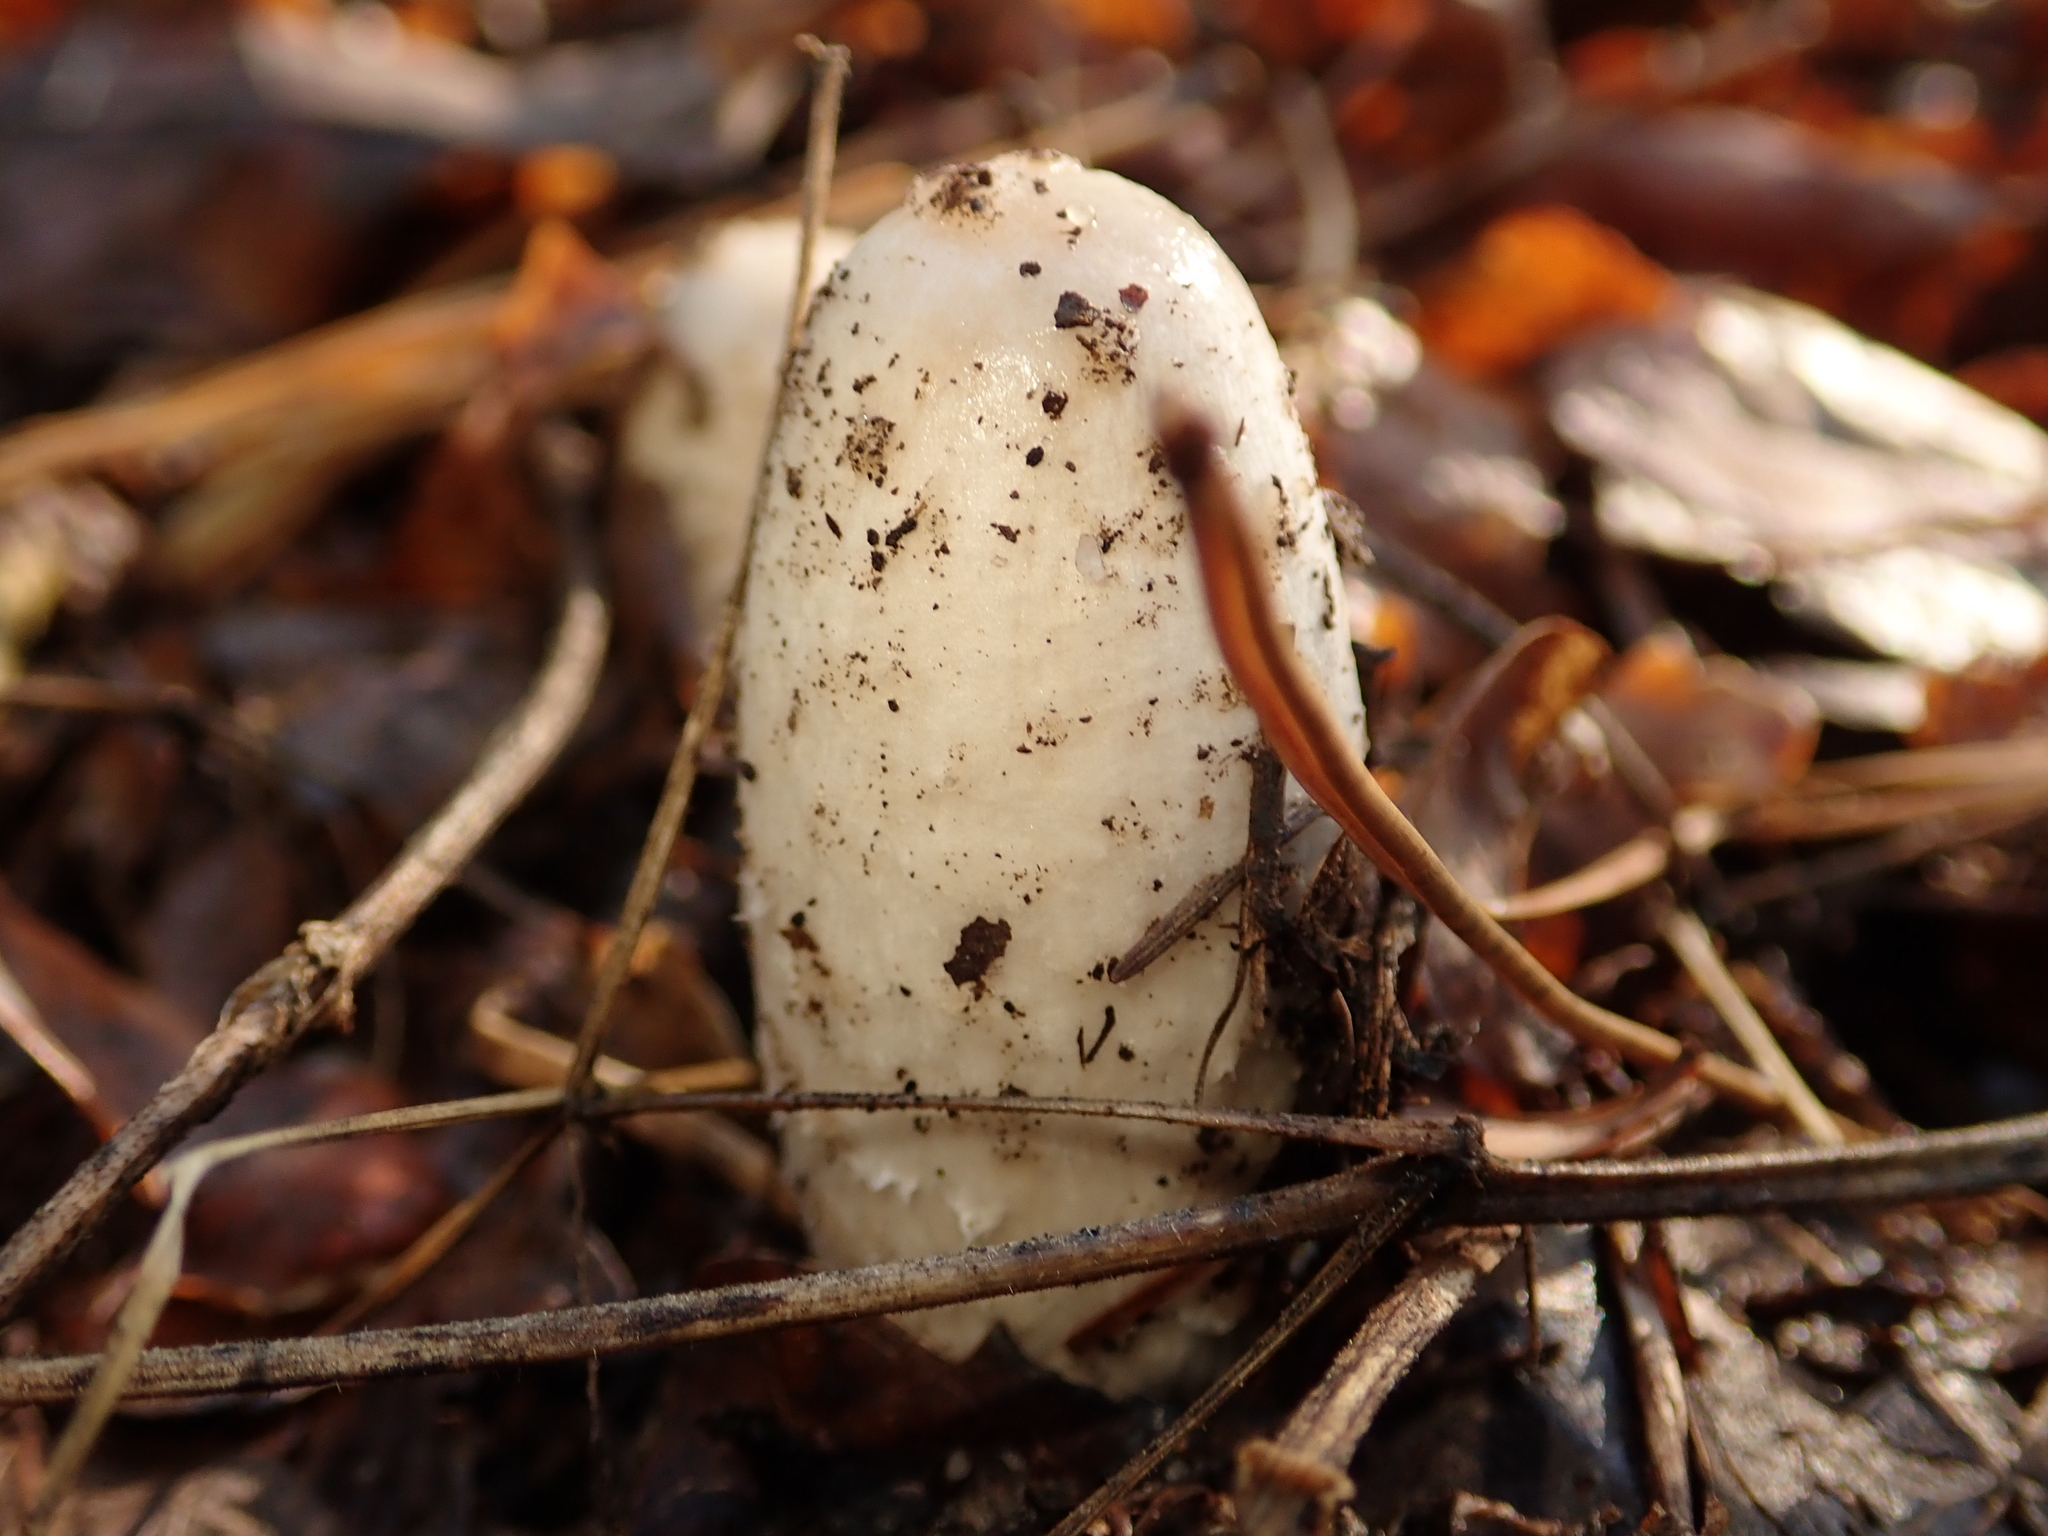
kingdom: Fungi
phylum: Basidiomycota
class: Agaricomycetes
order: Agaricales
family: Agaricaceae
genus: Coprinus
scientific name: Coprinus comatus
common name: Lawyer's wig
